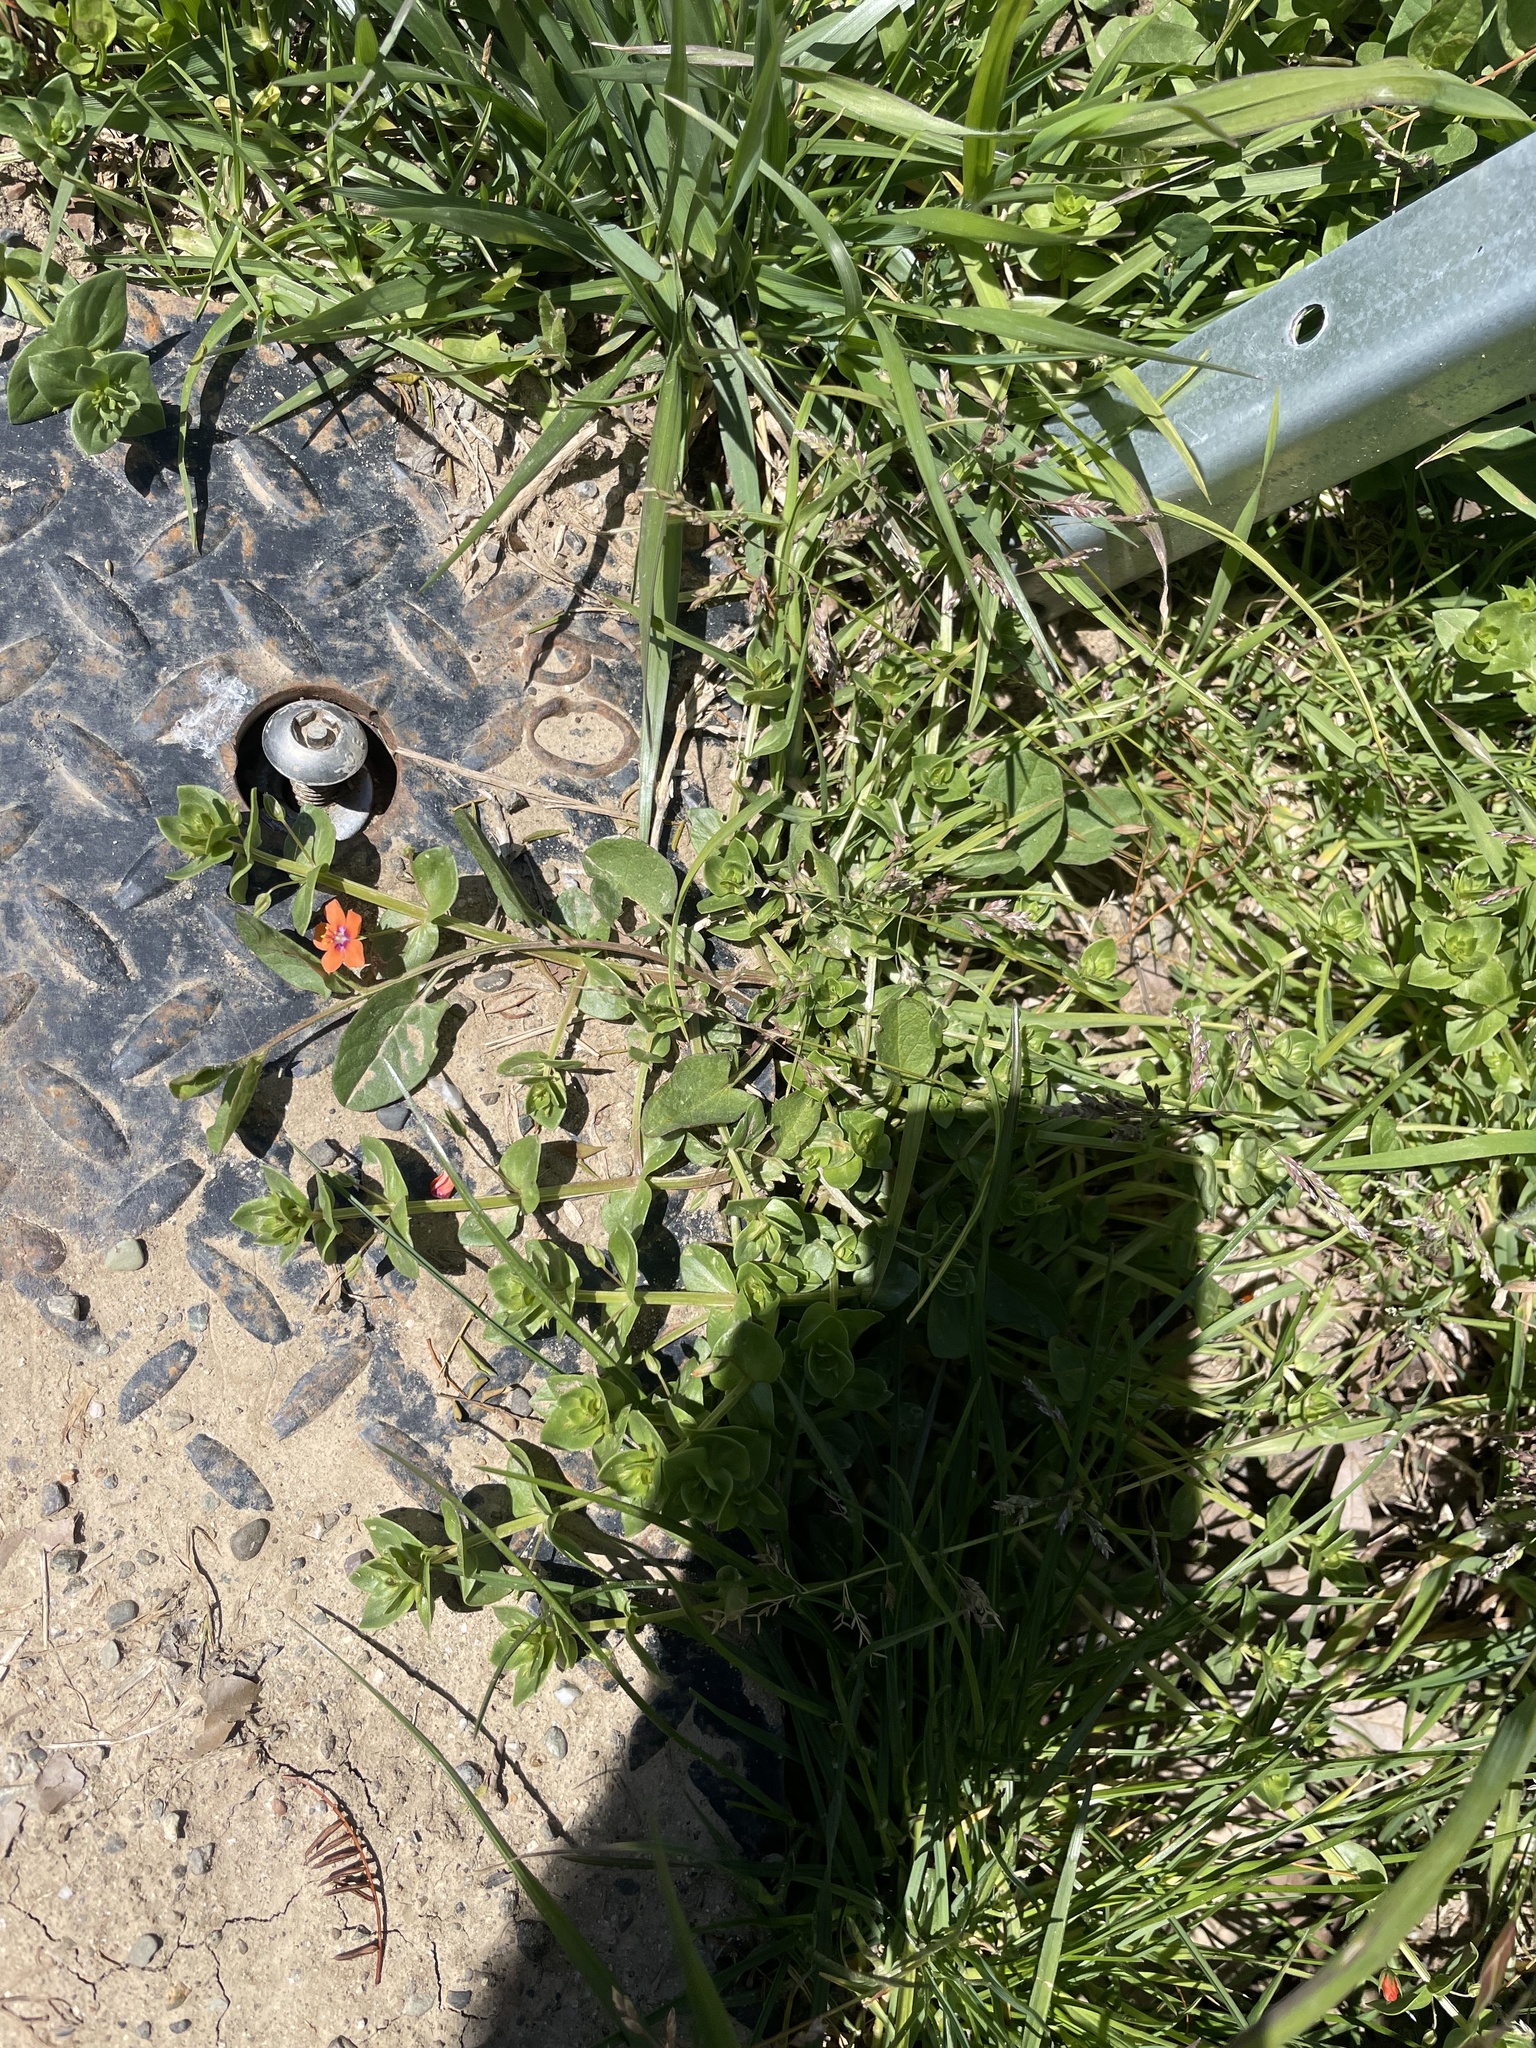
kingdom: Plantae
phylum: Tracheophyta
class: Magnoliopsida
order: Ericales
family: Primulaceae
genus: Lysimachia
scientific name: Lysimachia arvensis
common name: Scarlet pimpernel
